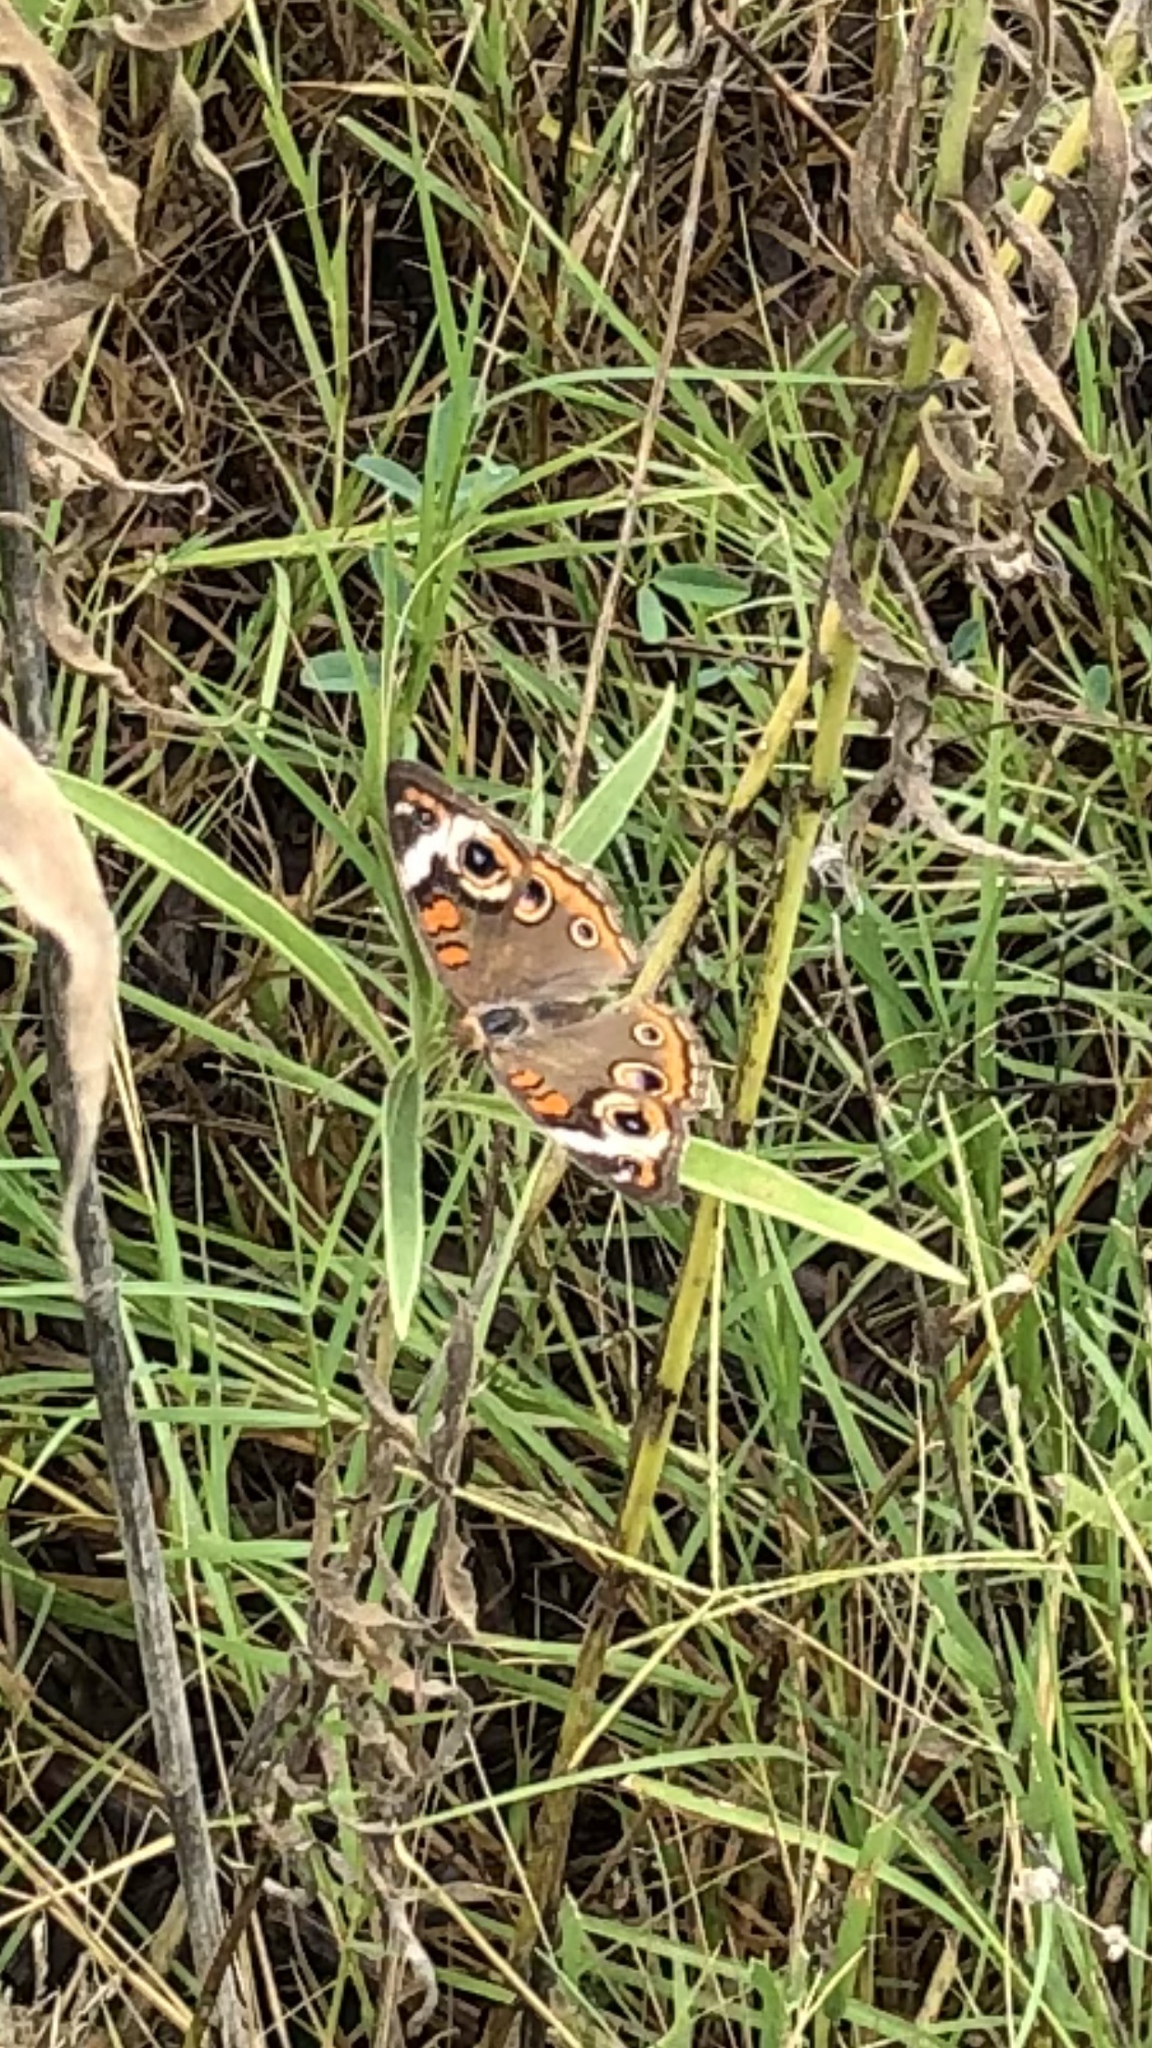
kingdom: Animalia
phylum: Arthropoda
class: Insecta
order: Lepidoptera
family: Nymphalidae
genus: Junonia
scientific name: Junonia coenia
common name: Common buckeye
